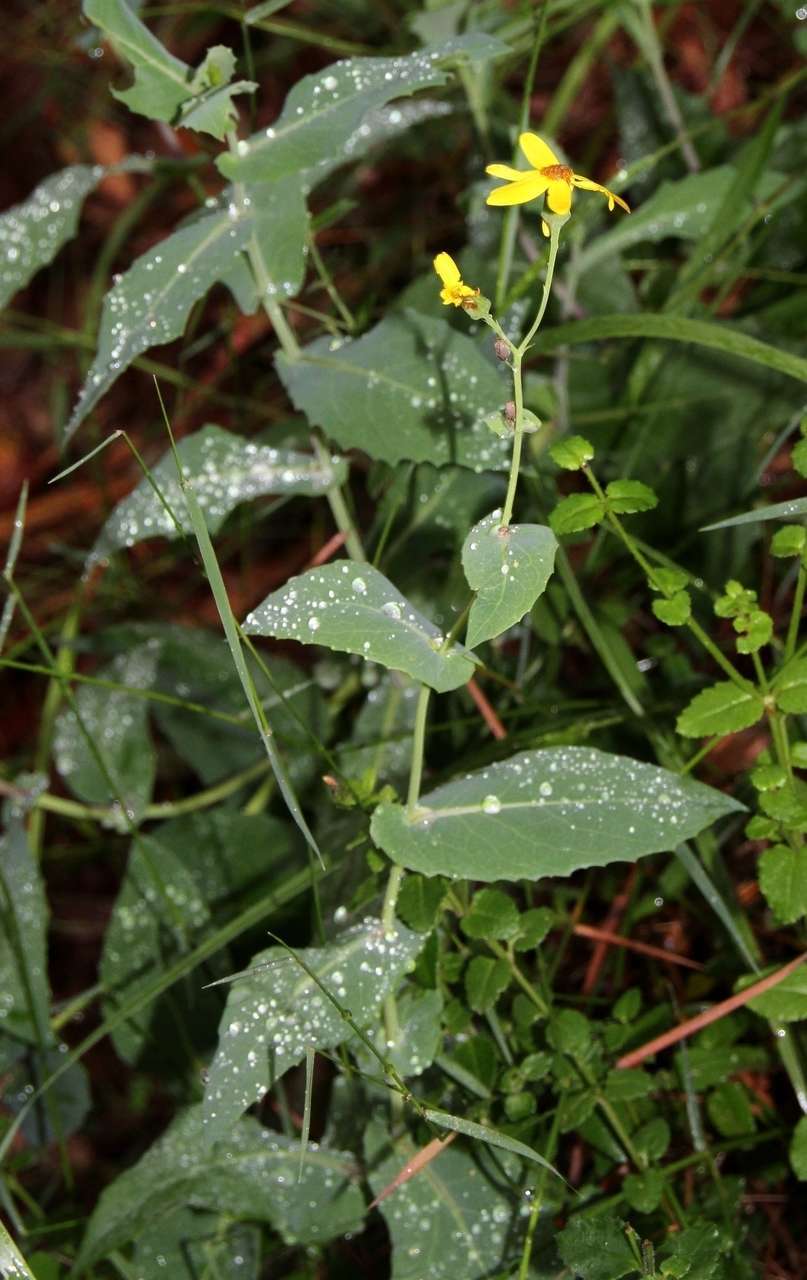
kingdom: Plantae
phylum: Tracheophyta
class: Magnoliopsida
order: Asterales
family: Asteraceae
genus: Lordhowea
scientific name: Lordhowea velleioides
